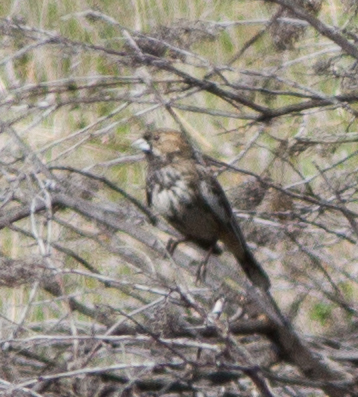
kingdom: Animalia
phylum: Chordata
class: Aves
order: Passeriformes
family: Passerellidae
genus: Calamospiza
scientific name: Calamospiza melanocorys
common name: Lark bunting
